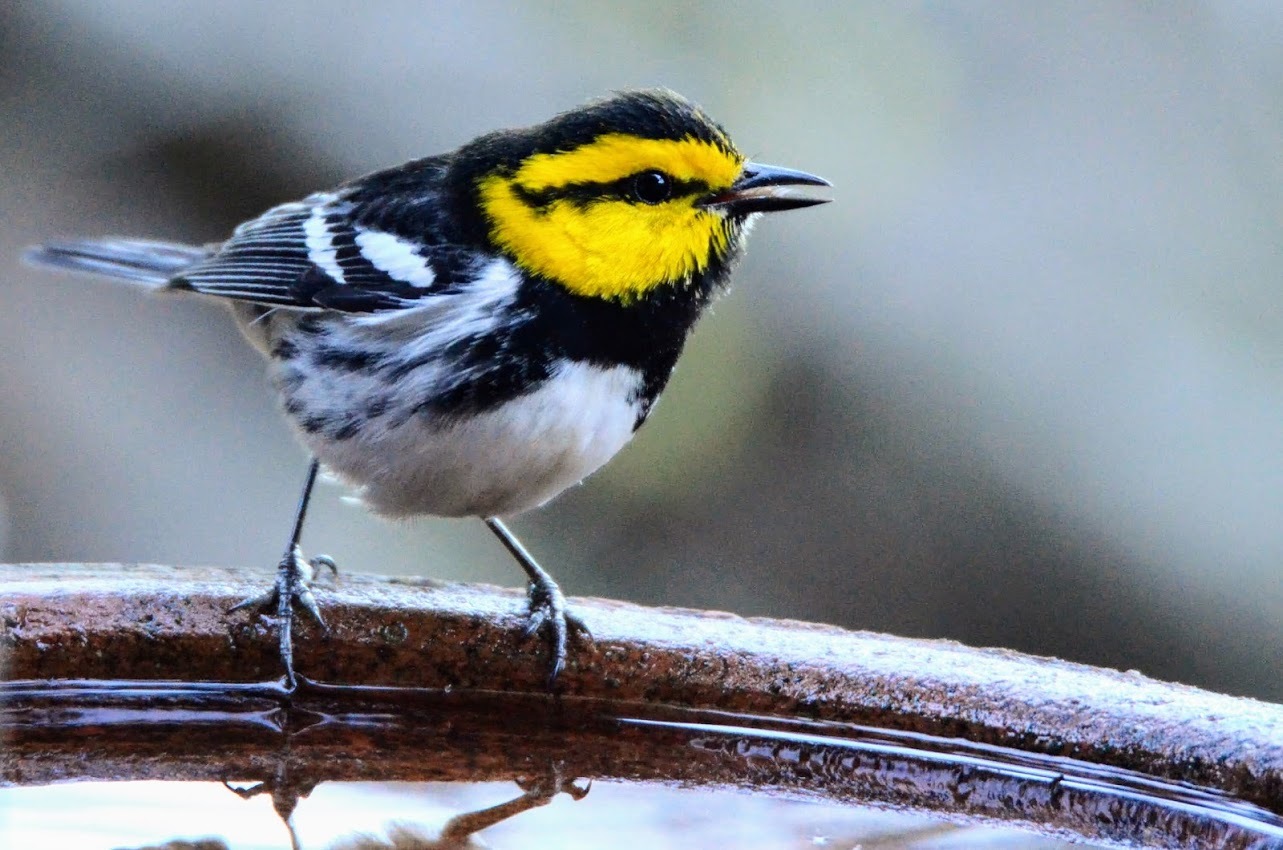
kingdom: Animalia
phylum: Chordata
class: Aves
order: Passeriformes
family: Parulidae
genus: Setophaga
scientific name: Setophaga chrysoparia
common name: Golden-cheeked warbler
